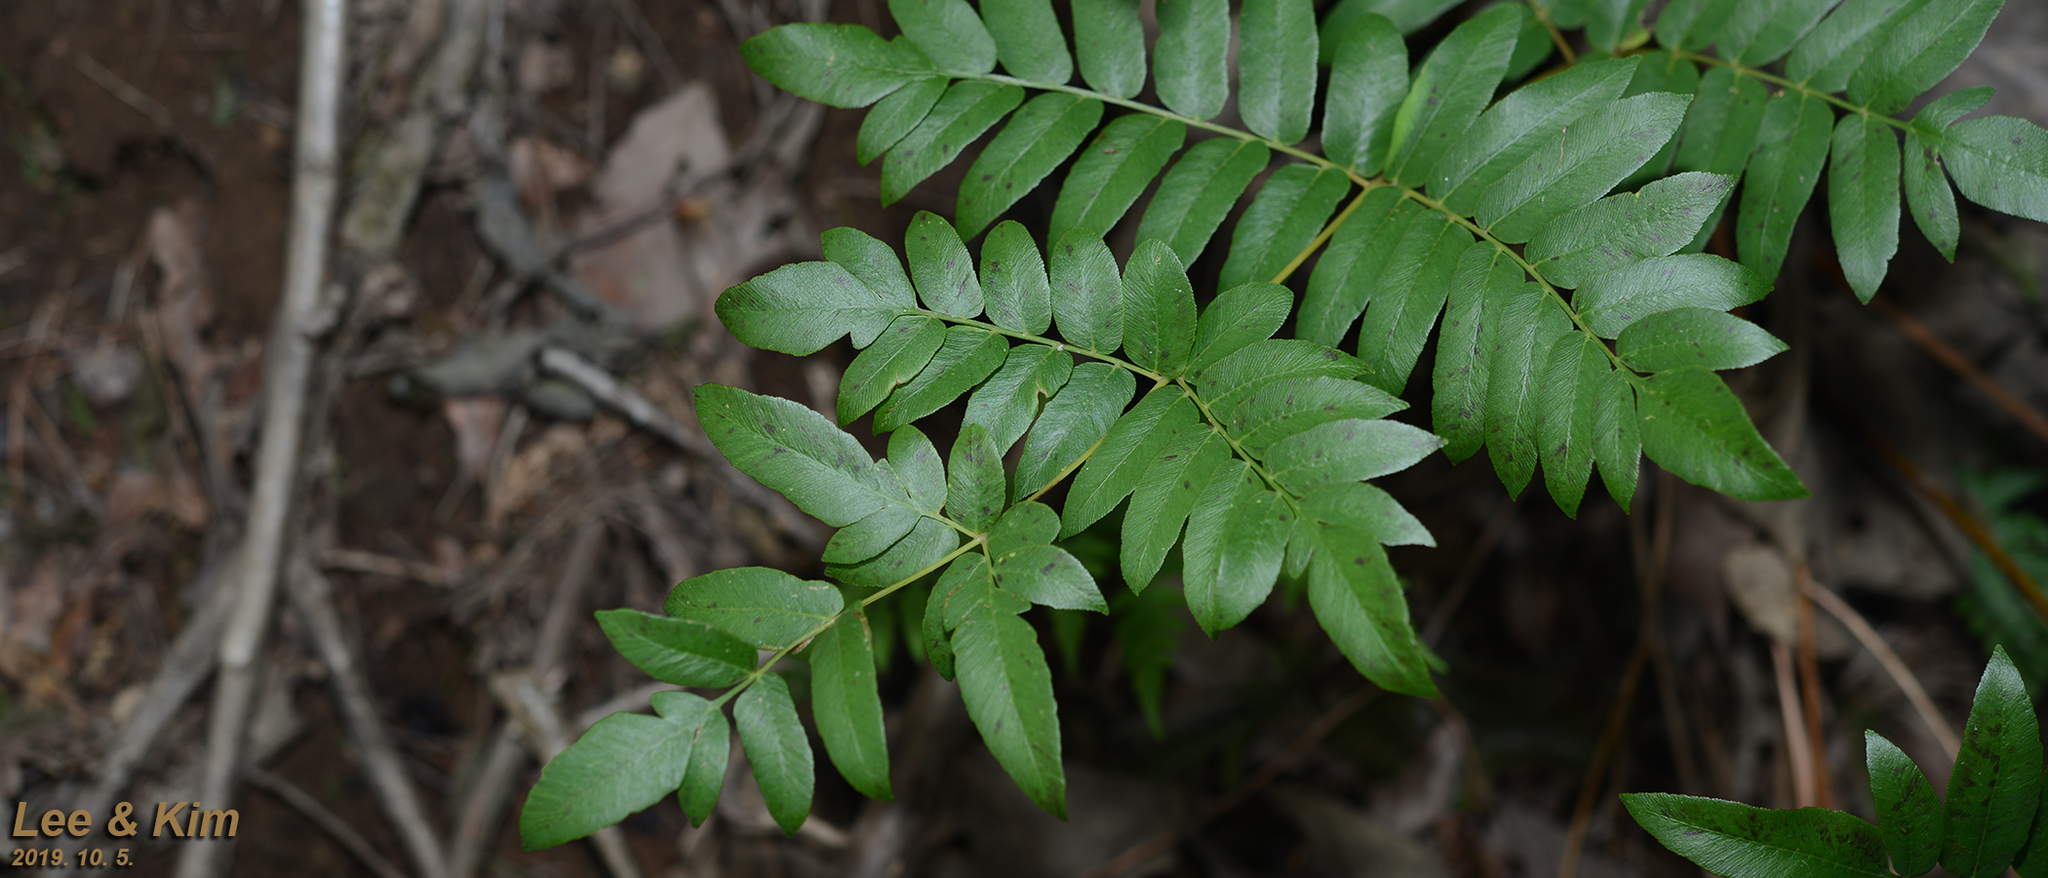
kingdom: Plantae
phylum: Tracheophyta
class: Polypodiopsida
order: Osmundales
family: Osmundaceae
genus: Osmunda
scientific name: Osmunda japonica
